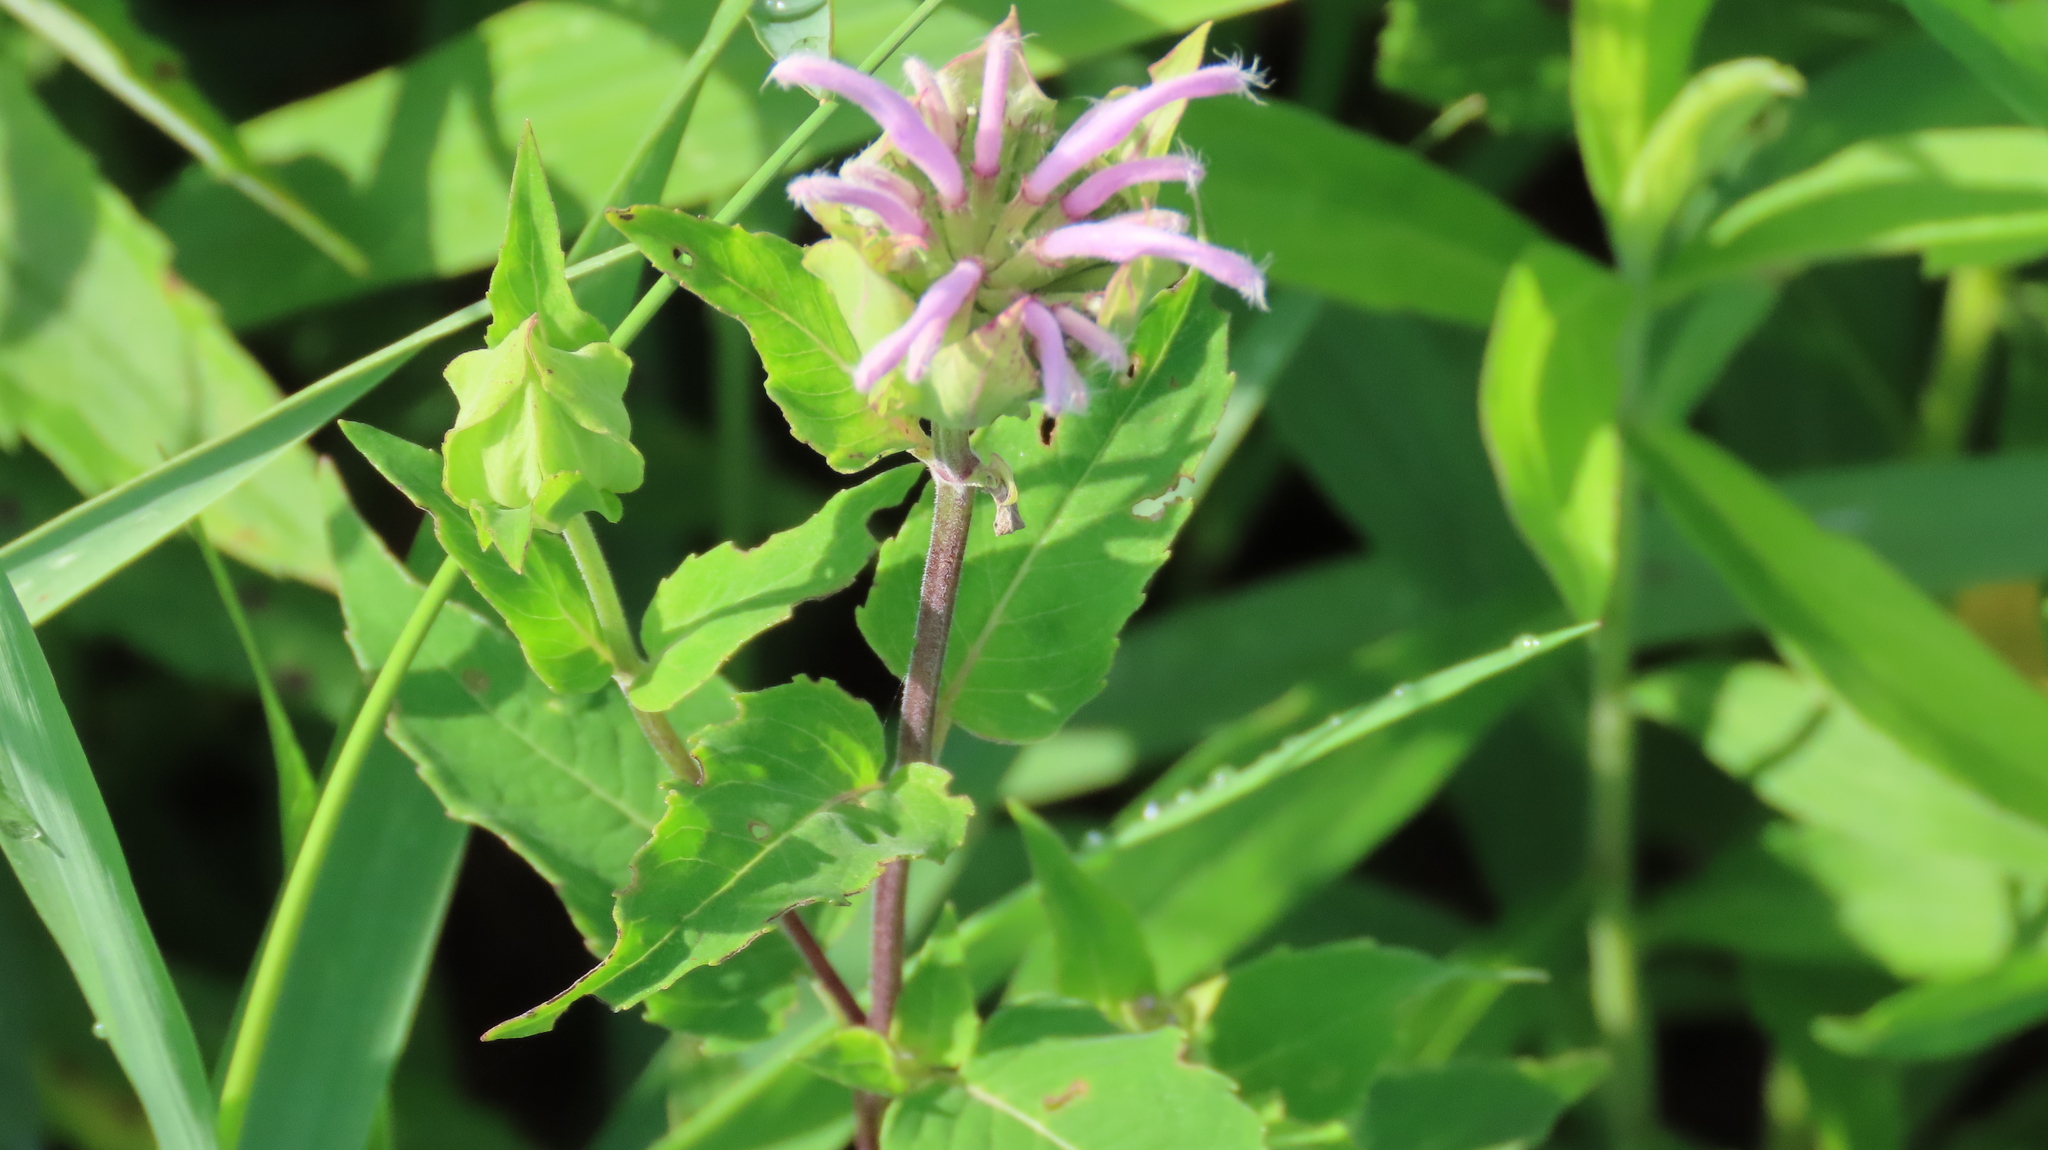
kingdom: Plantae
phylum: Tracheophyta
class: Magnoliopsida
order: Lamiales
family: Lamiaceae
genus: Monarda
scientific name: Monarda fistulosa
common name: Purple beebalm
